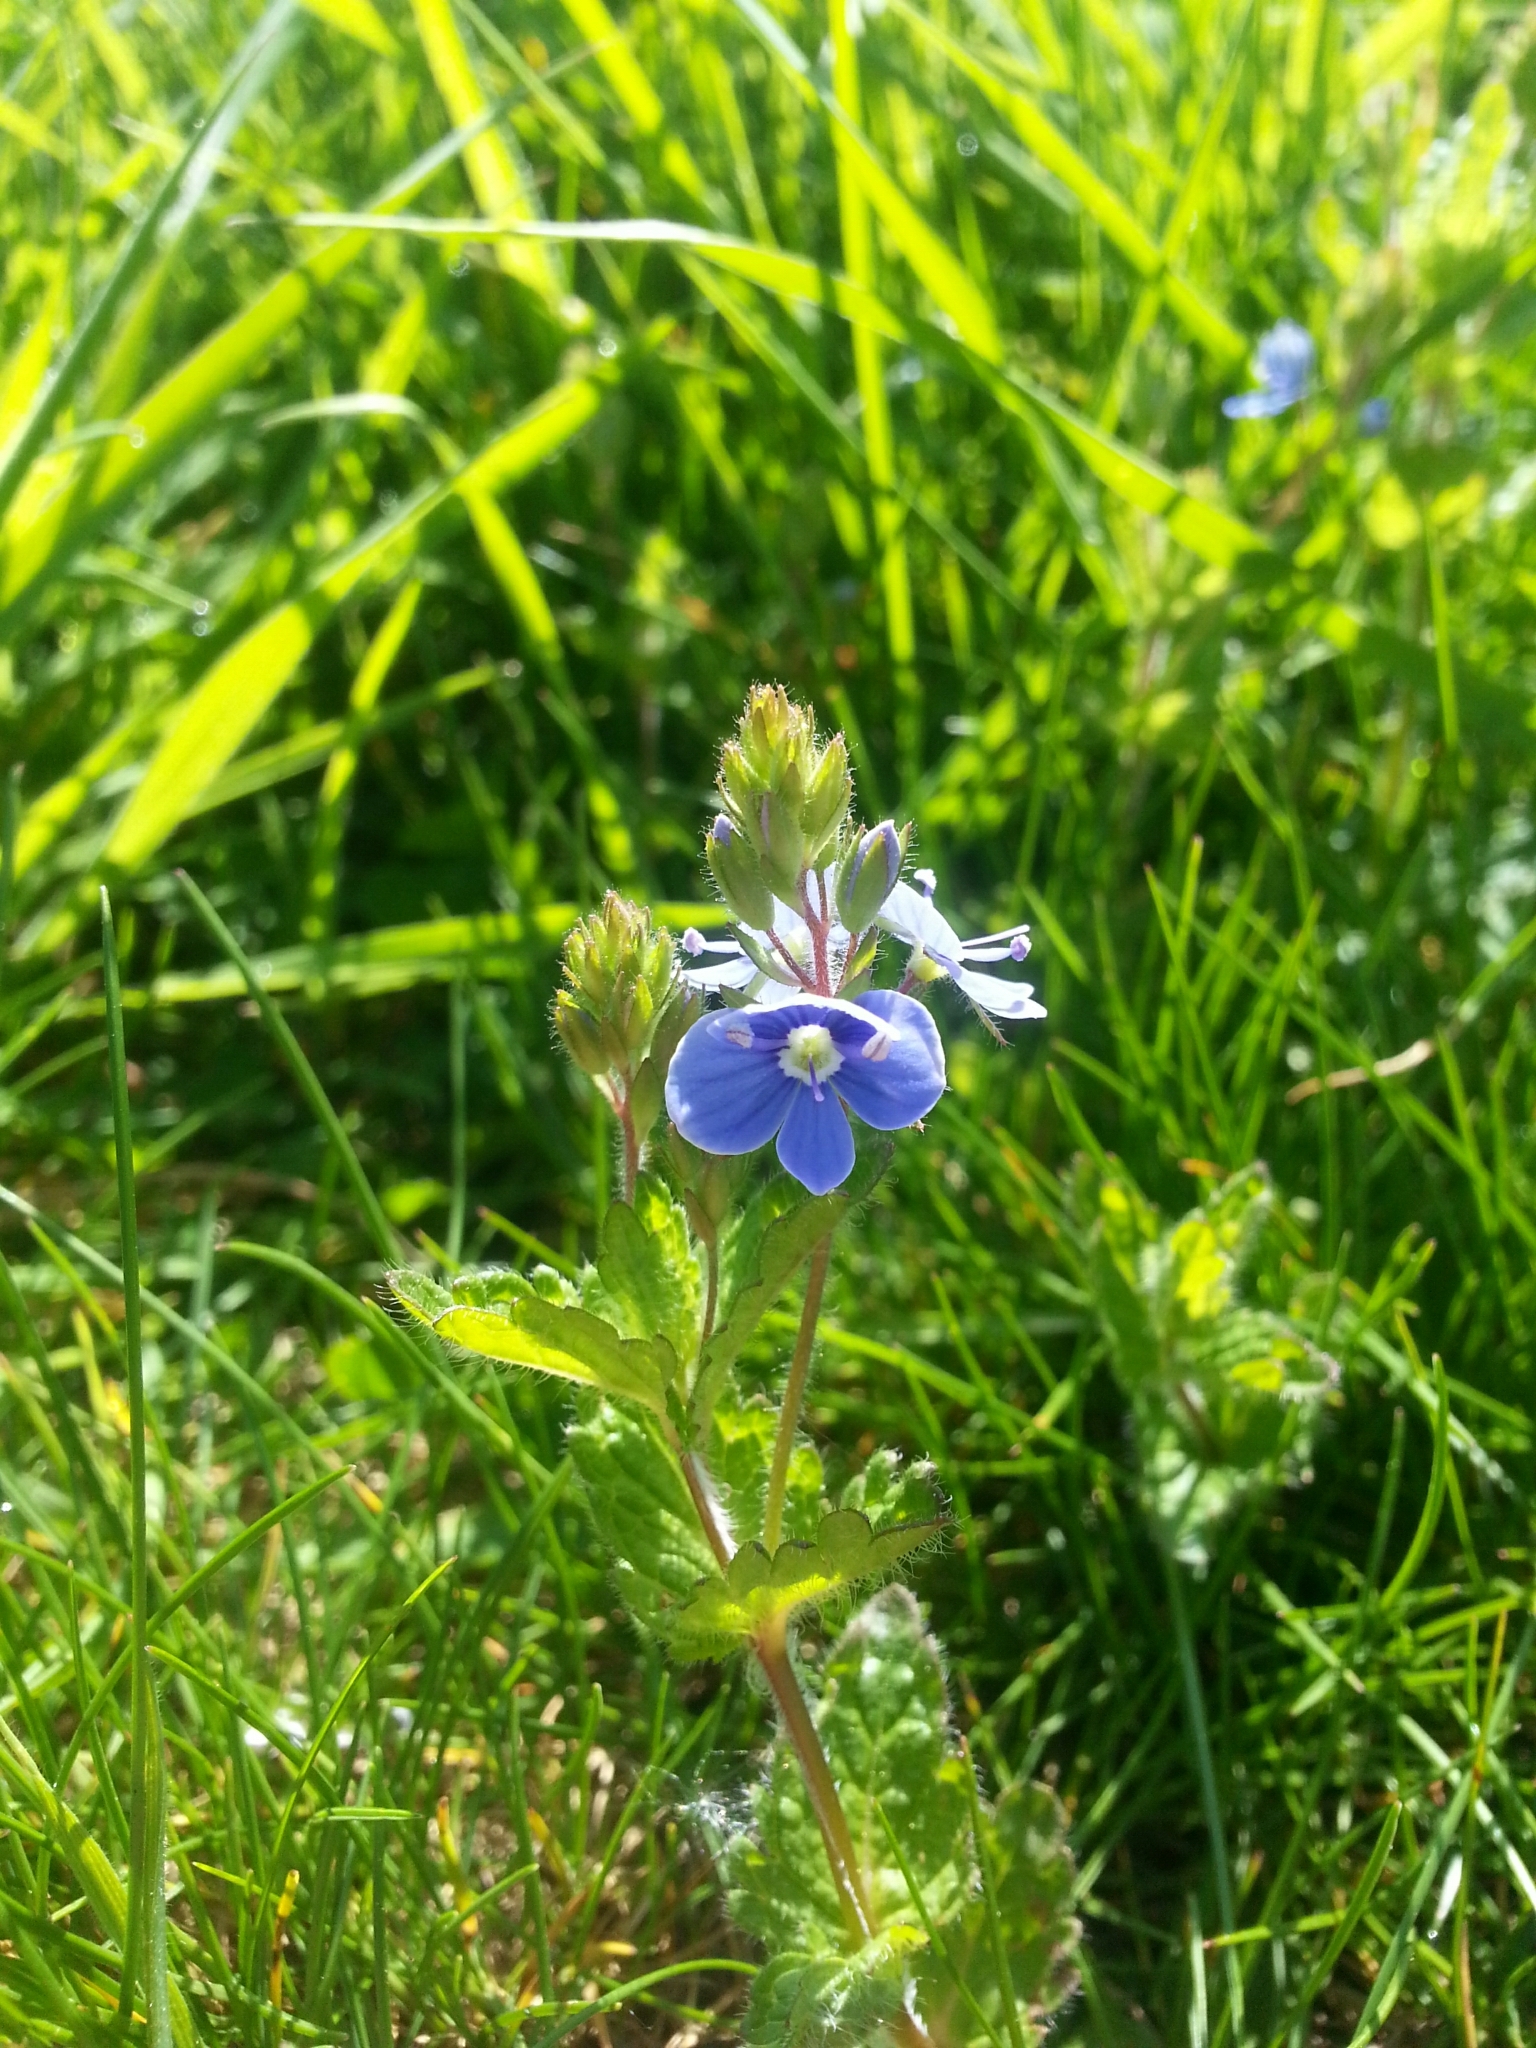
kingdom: Plantae
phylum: Tracheophyta
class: Magnoliopsida
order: Lamiales
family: Plantaginaceae
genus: Veronica
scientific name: Veronica chamaedrys
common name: Germander speedwell
